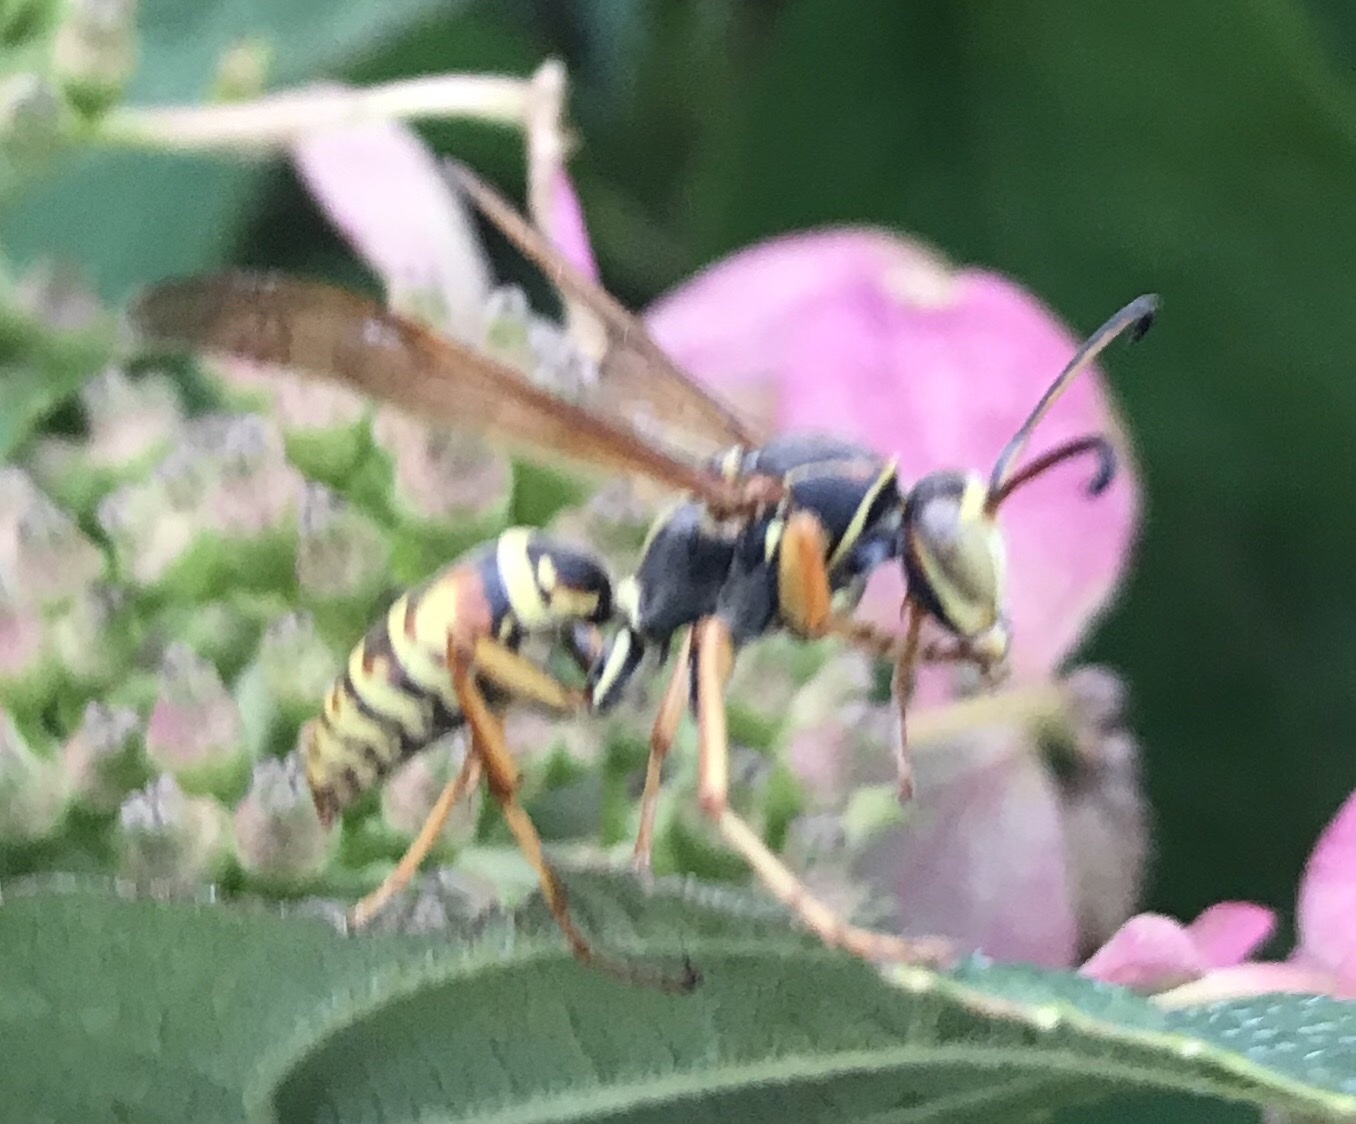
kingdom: Animalia
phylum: Arthropoda
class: Insecta
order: Hymenoptera
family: Eumenidae
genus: Polistes
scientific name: Polistes fuscatus
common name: Dark paper wasp
